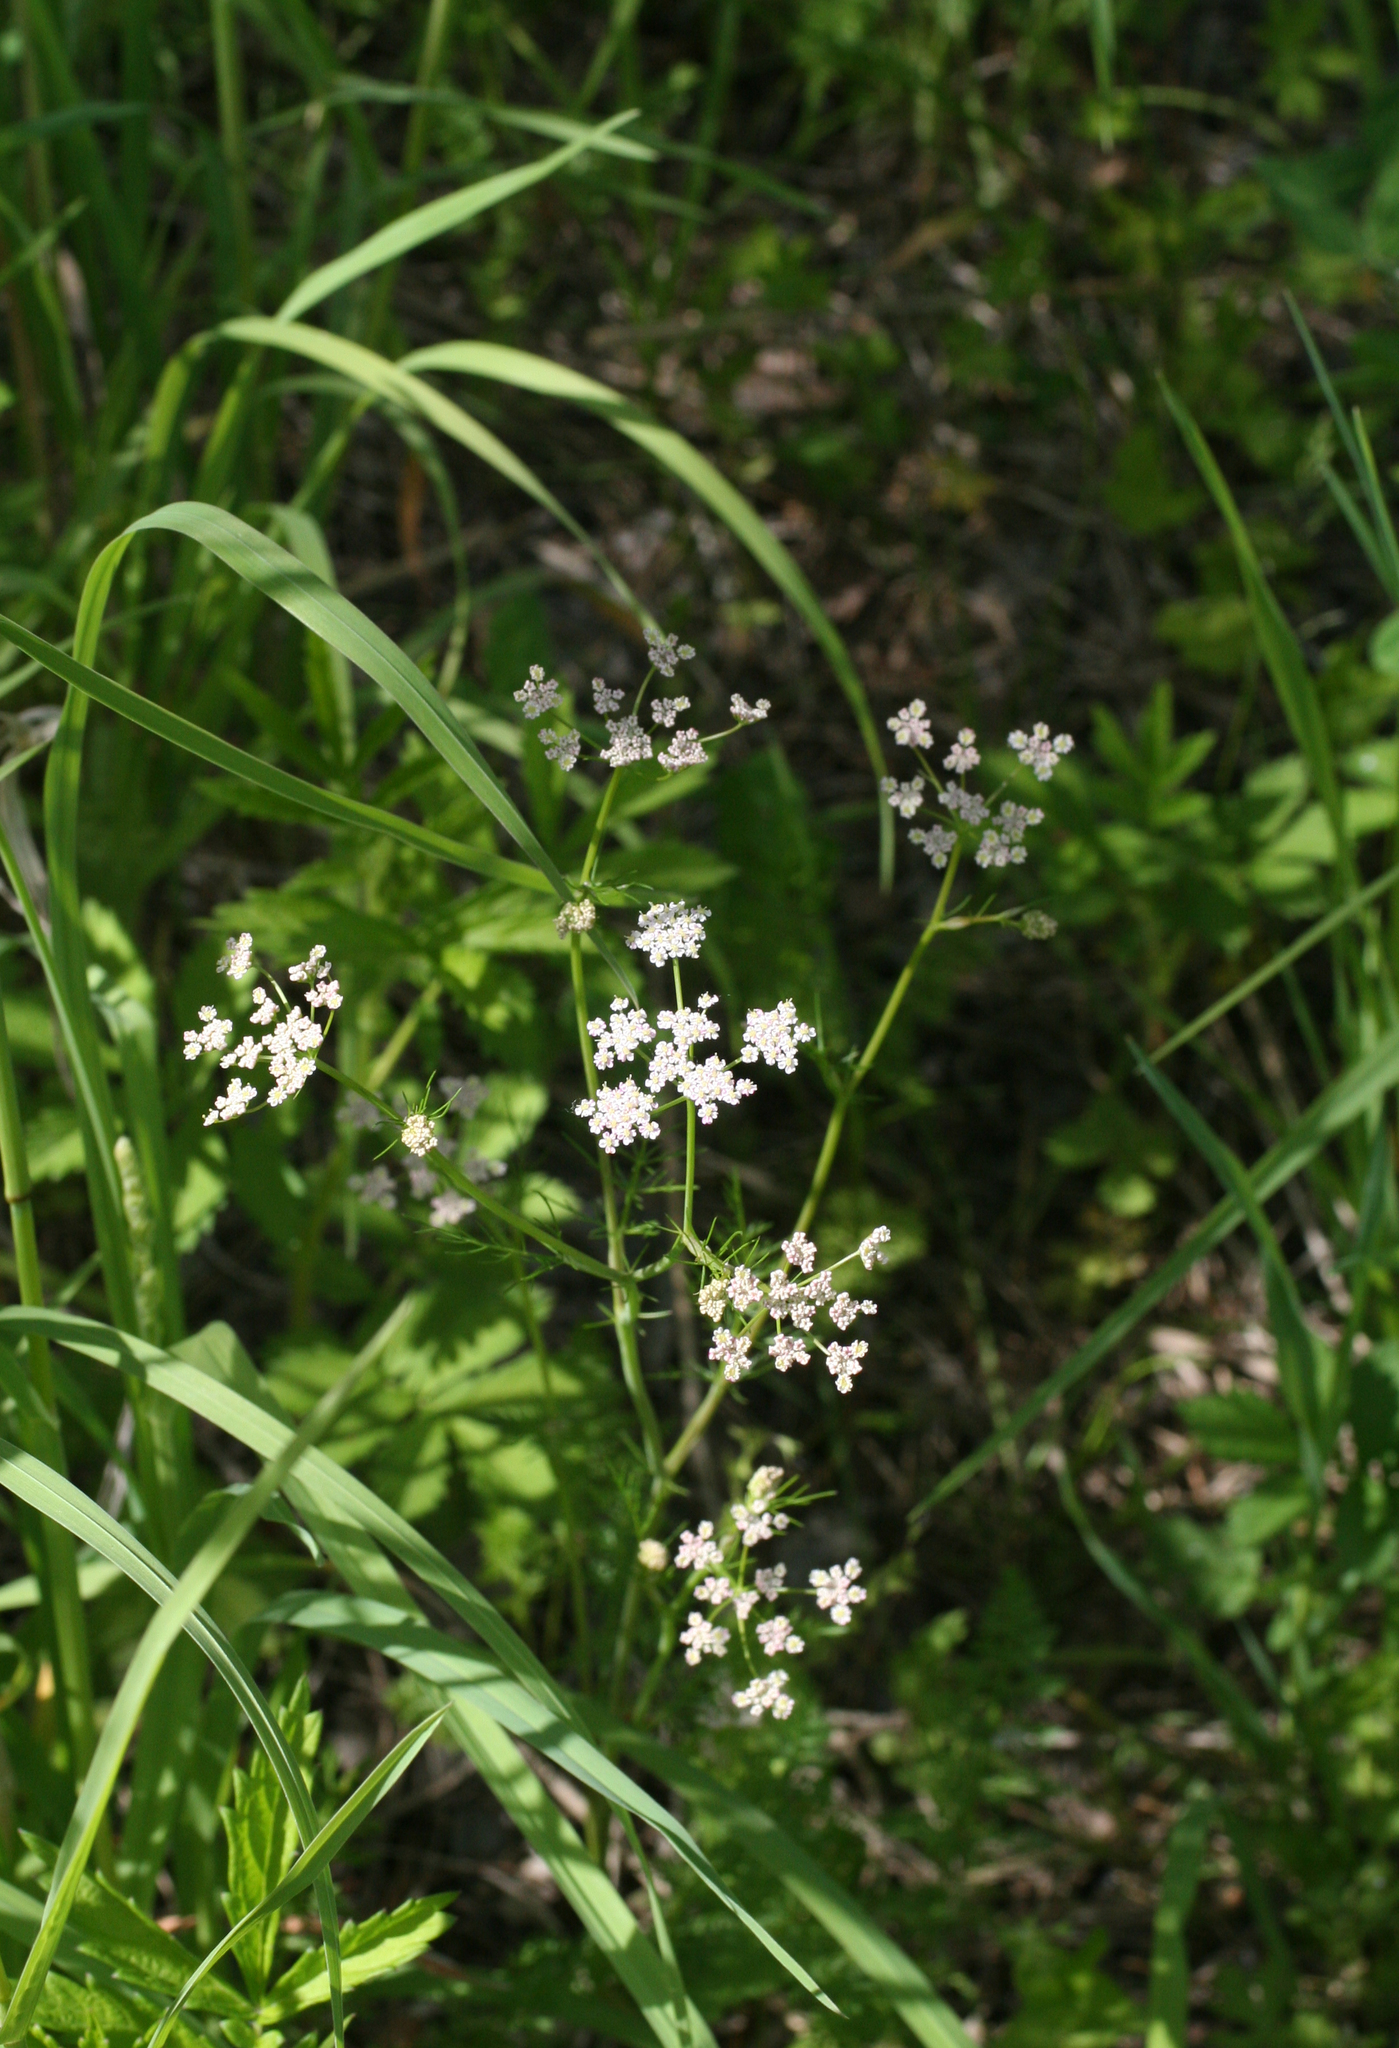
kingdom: Plantae
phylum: Tracheophyta
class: Magnoliopsida
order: Apiales
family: Apiaceae
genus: Carum
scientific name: Carum carvi
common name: Caraway
